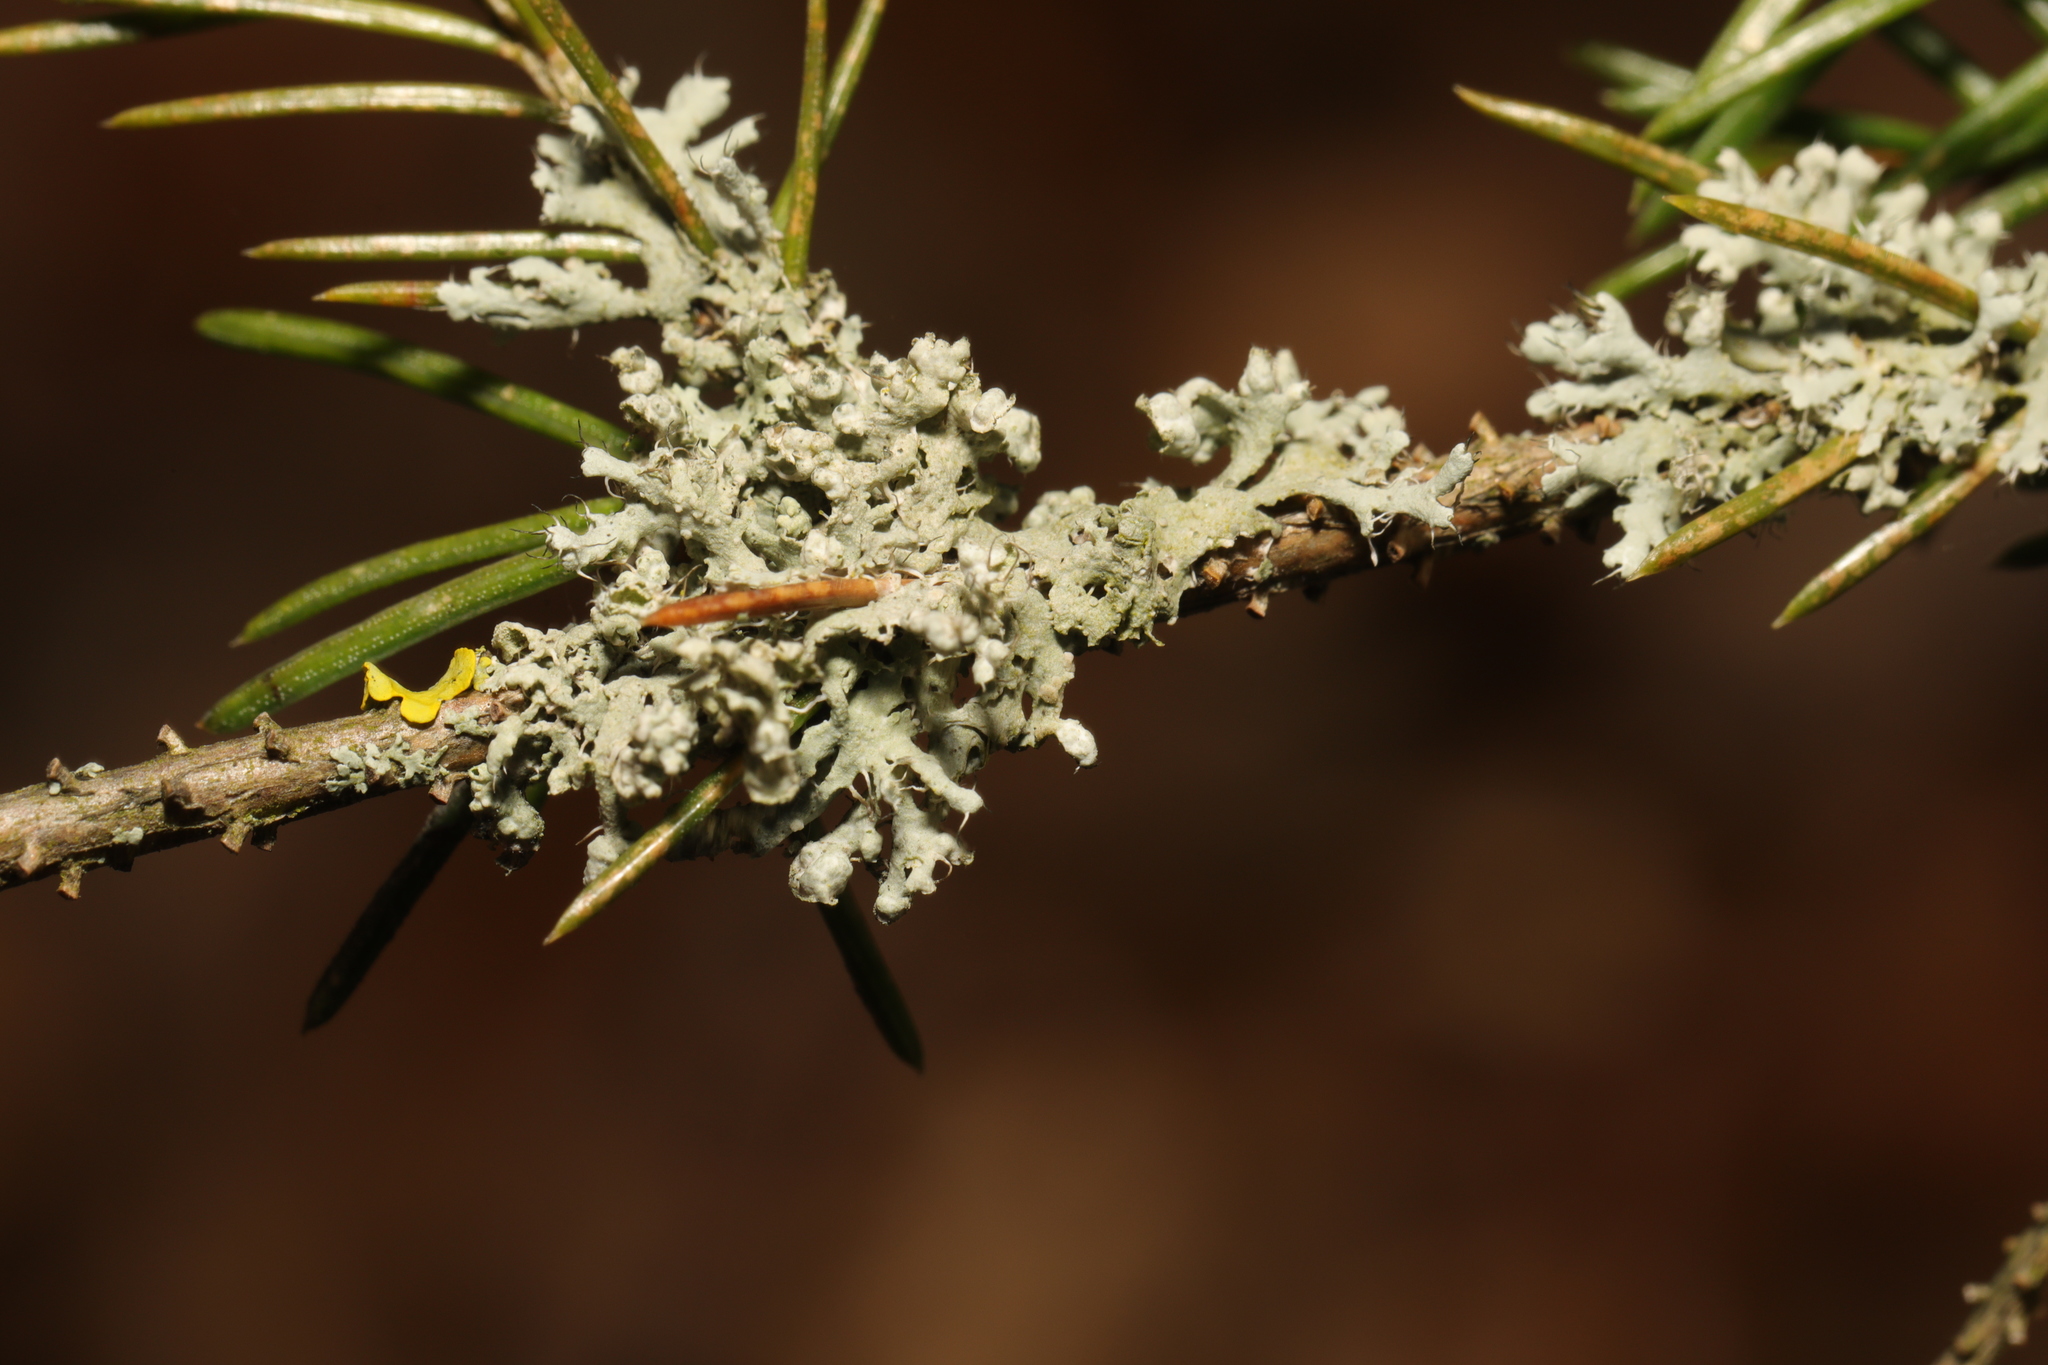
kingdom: Fungi
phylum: Ascomycota
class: Lecanoromycetes
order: Caliciales
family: Physciaceae
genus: Physcia
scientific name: Physcia adscendens
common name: Hooded rosette lichen
